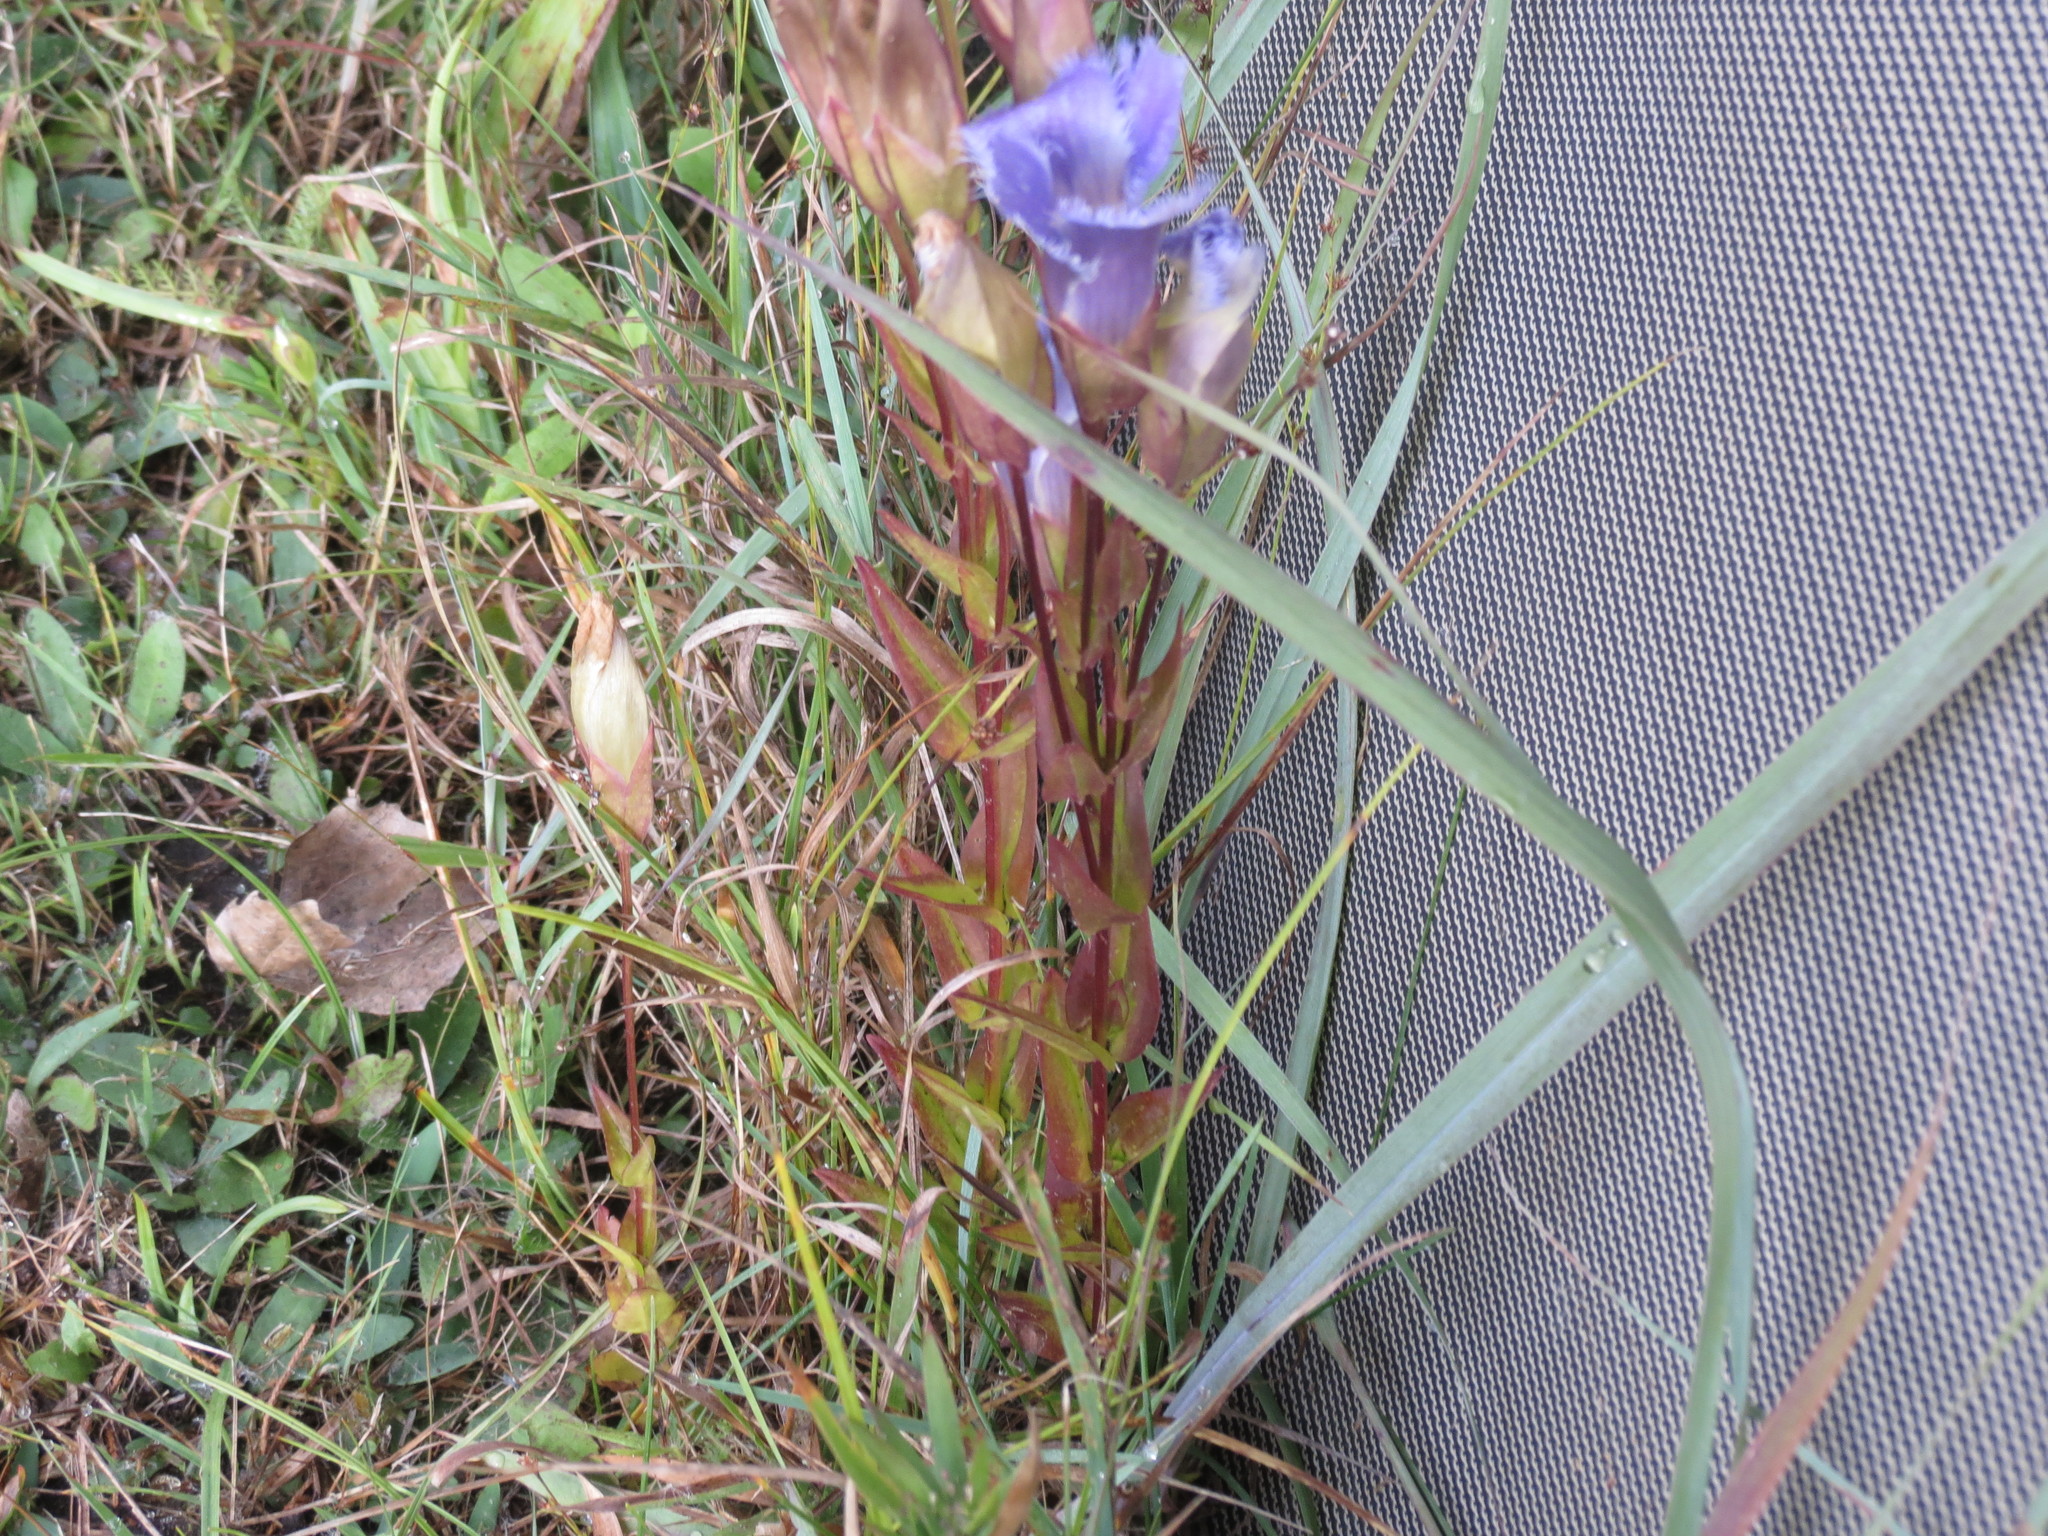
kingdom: Plantae
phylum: Tracheophyta
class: Magnoliopsida
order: Gentianales
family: Gentianaceae
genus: Gentianopsis
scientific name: Gentianopsis crinita
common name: Fringed-gentian
